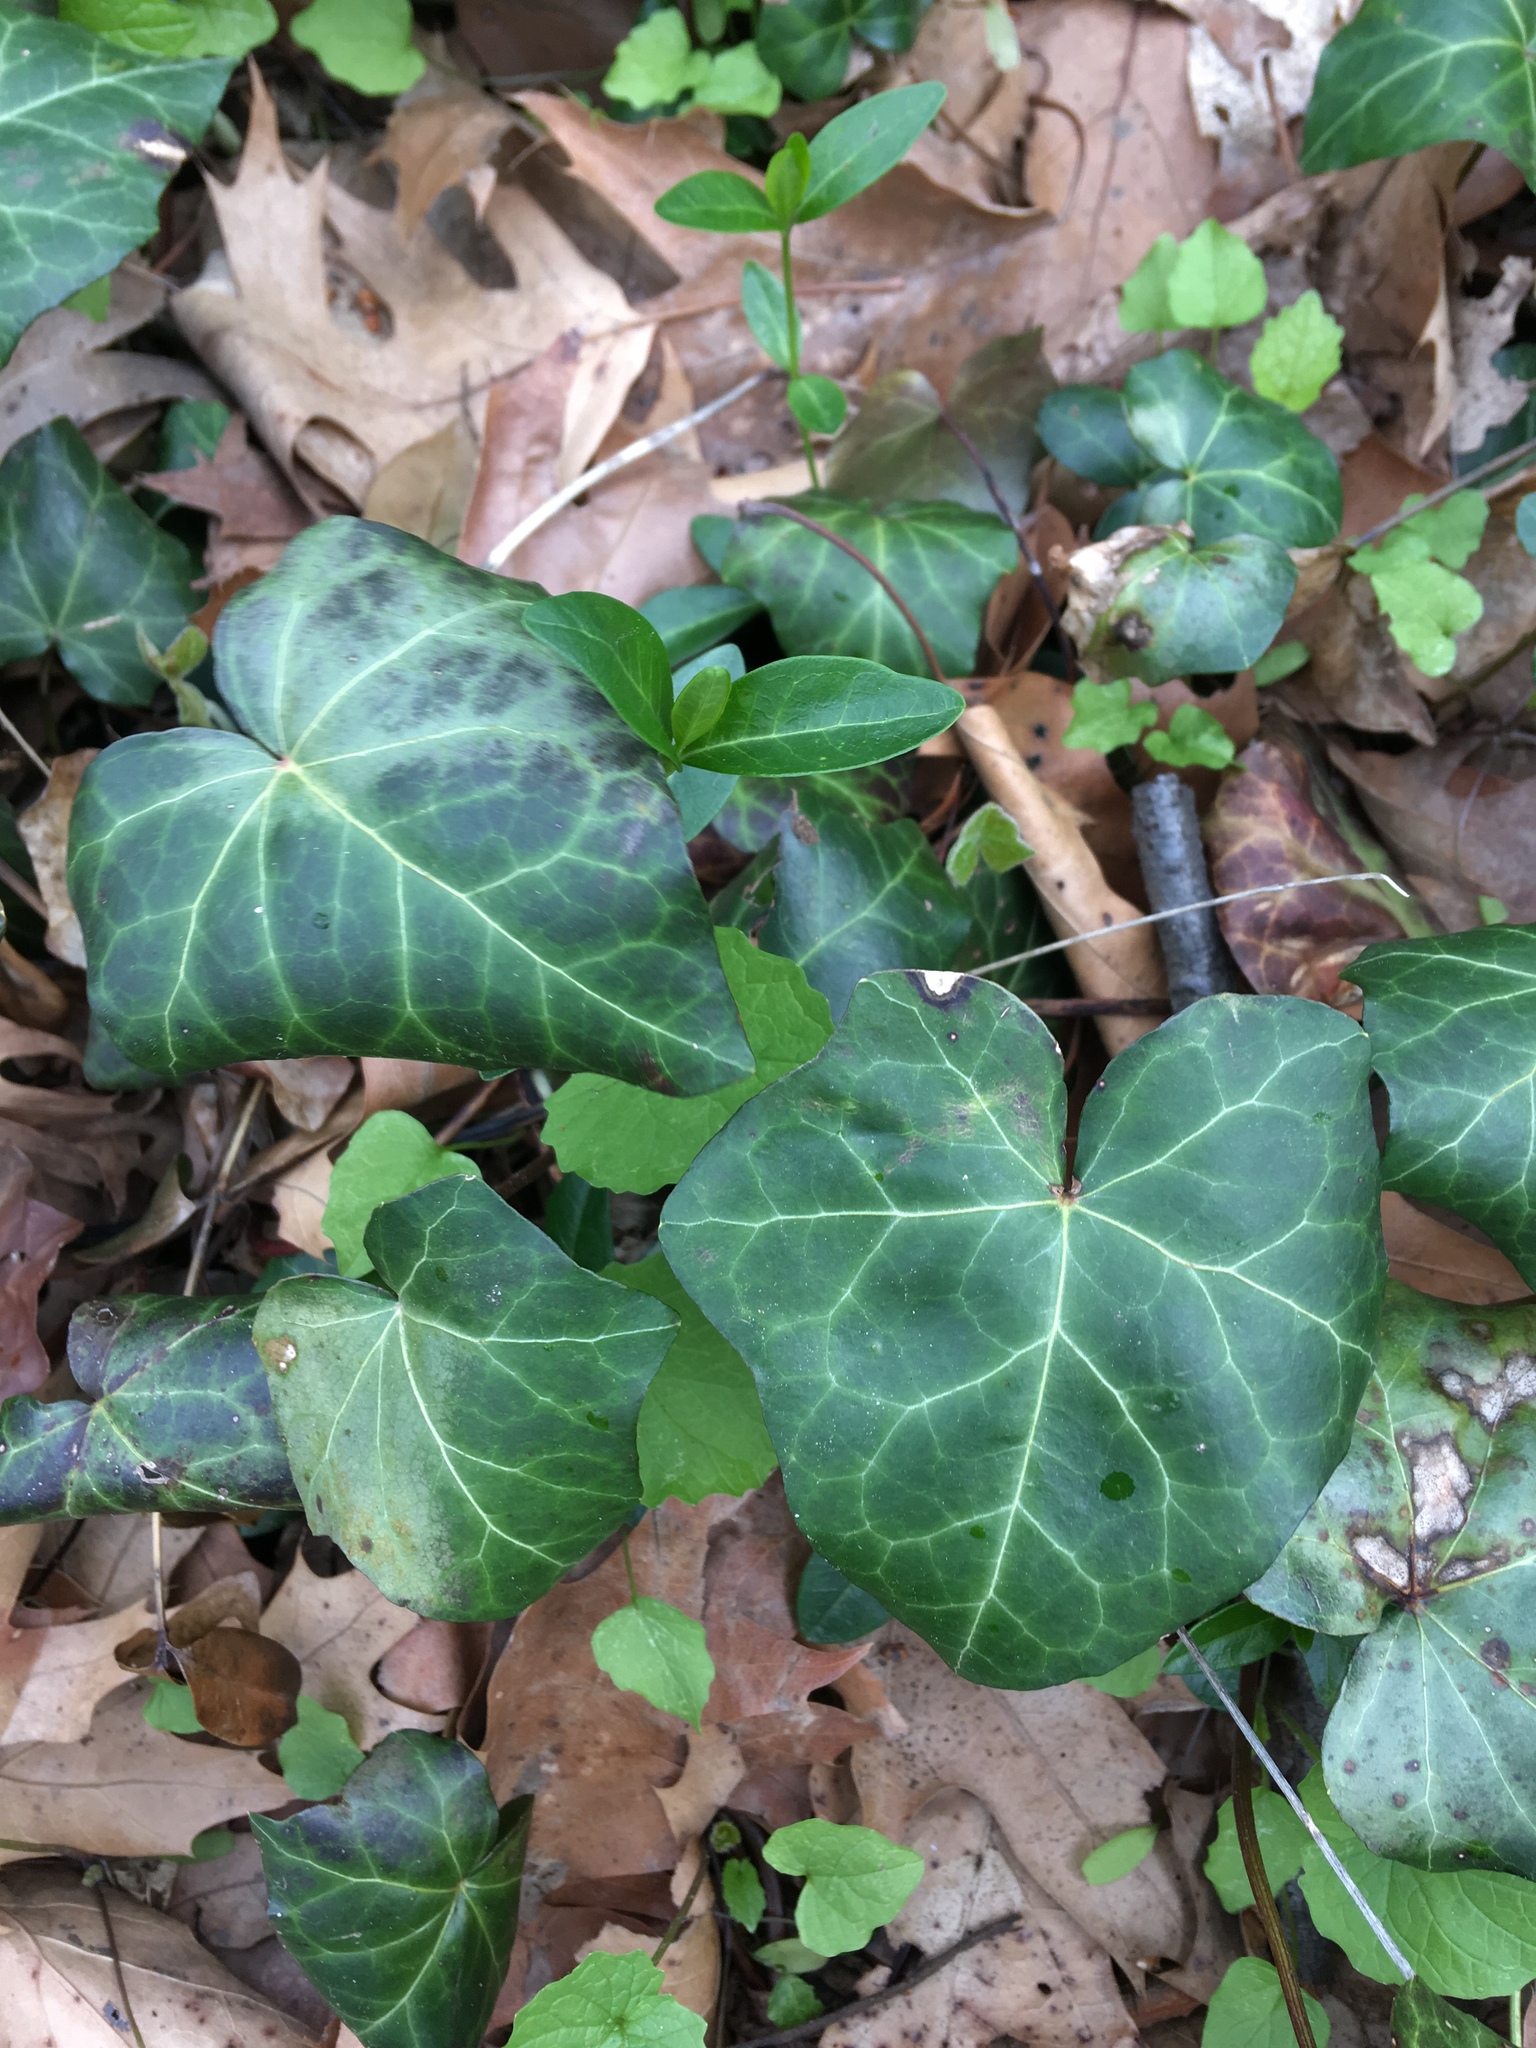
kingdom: Plantae
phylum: Tracheophyta
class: Magnoliopsida
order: Apiales
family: Araliaceae
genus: Hedera
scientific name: Hedera helix
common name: Ivy
